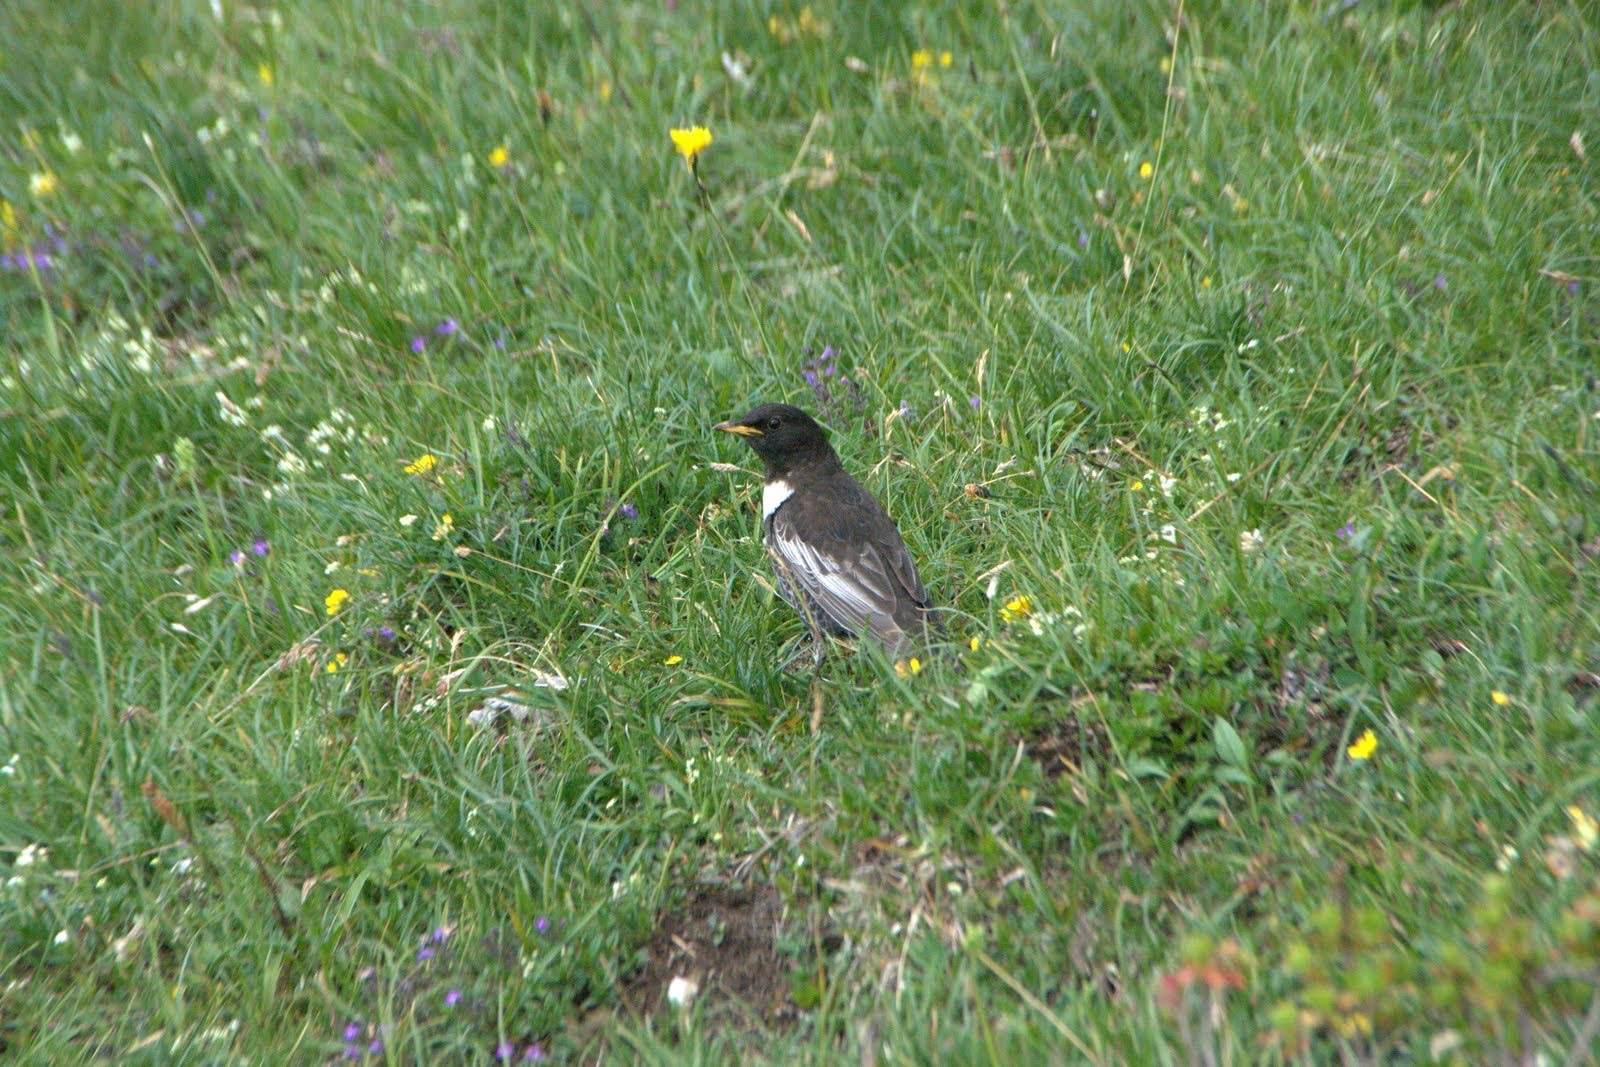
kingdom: Animalia
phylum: Chordata
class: Aves
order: Passeriformes
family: Turdidae
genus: Turdus
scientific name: Turdus torquatus
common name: Ring ouzel
